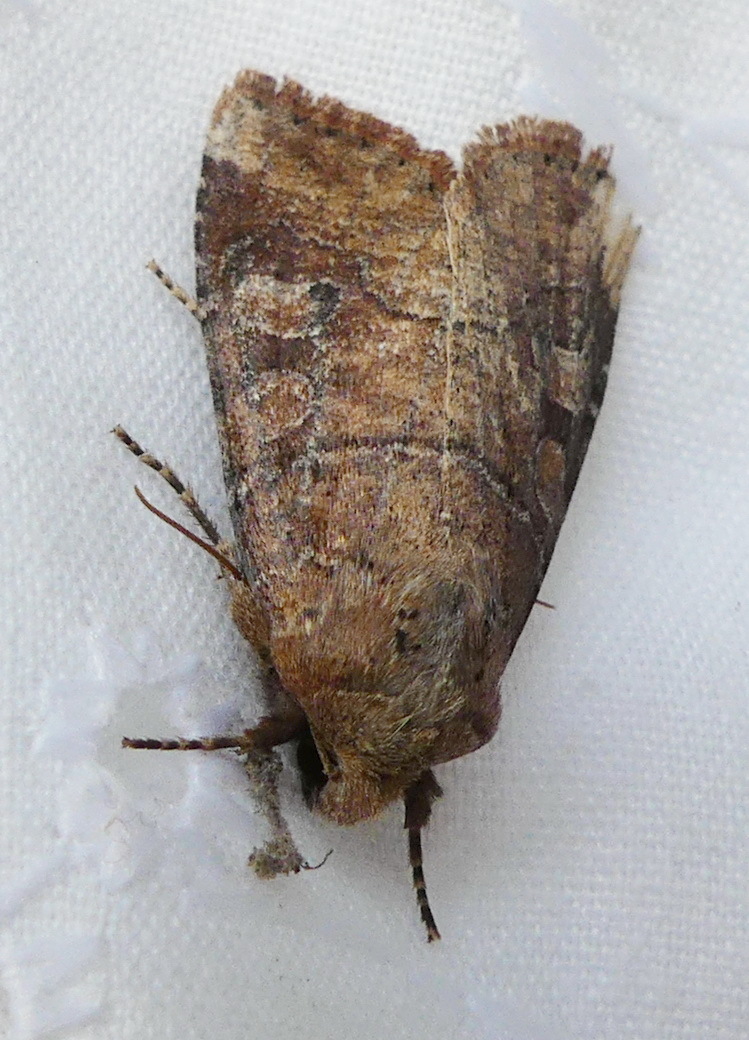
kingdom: Animalia
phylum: Arthropoda
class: Insecta
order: Lepidoptera
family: Noctuidae
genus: Crocigrapha
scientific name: Crocigrapha normani
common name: Norman's quaker
